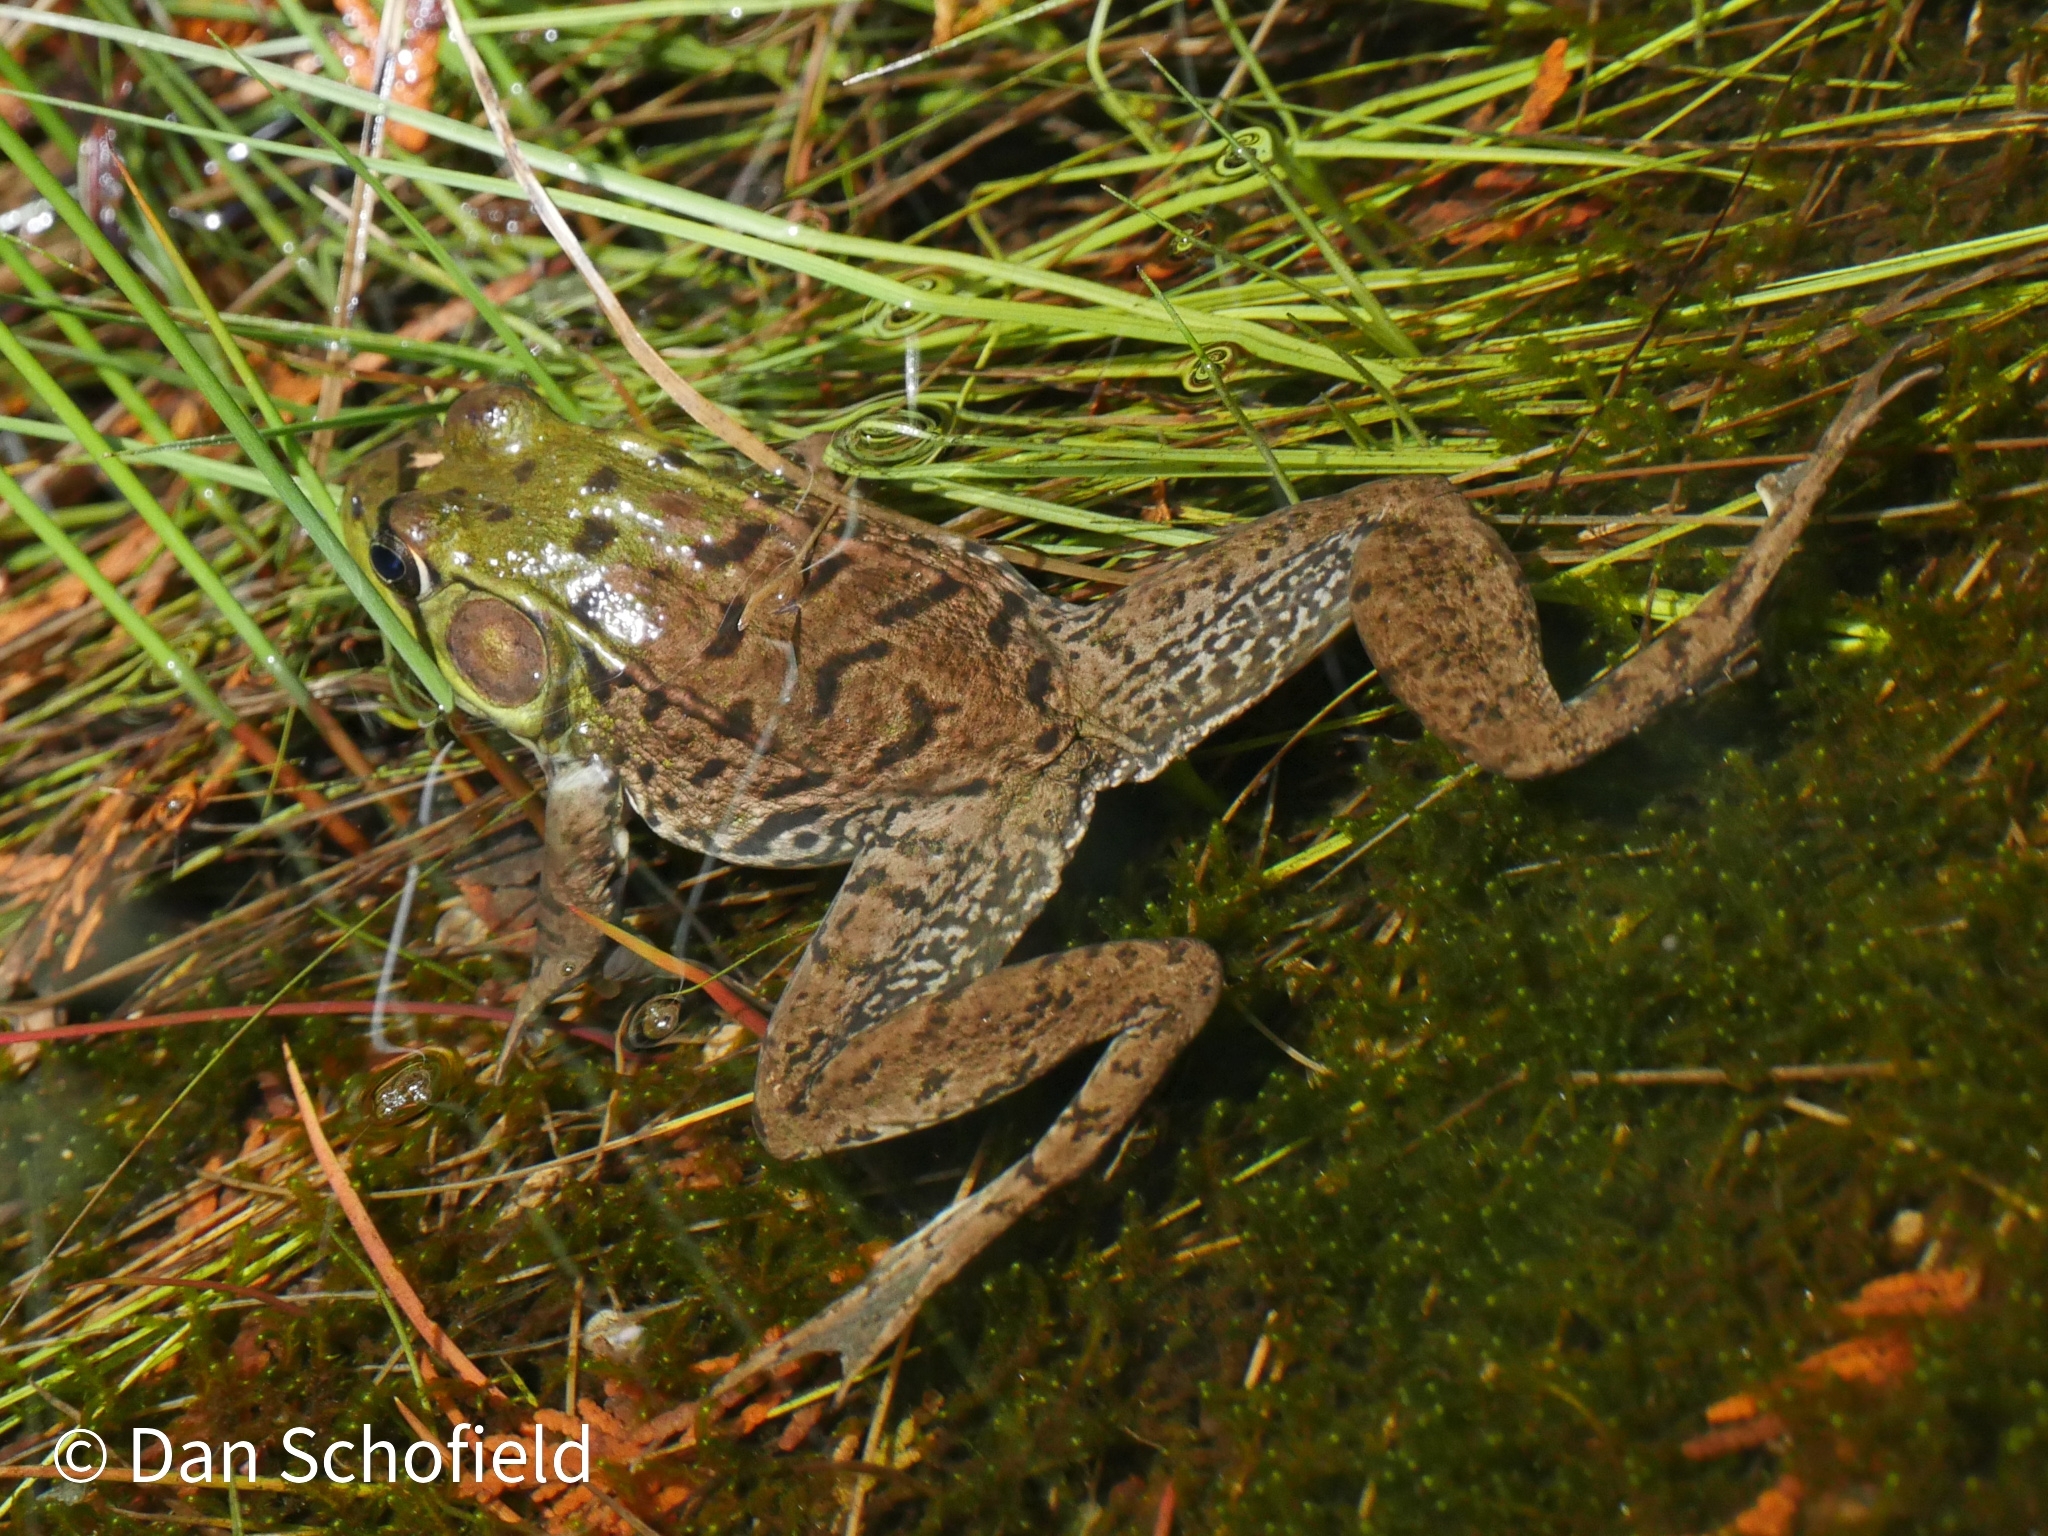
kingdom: Animalia
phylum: Chordata
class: Amphibia
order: Anura
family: Ranidae
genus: Lithobates
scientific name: Lithobates clamitans
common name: Green frog
